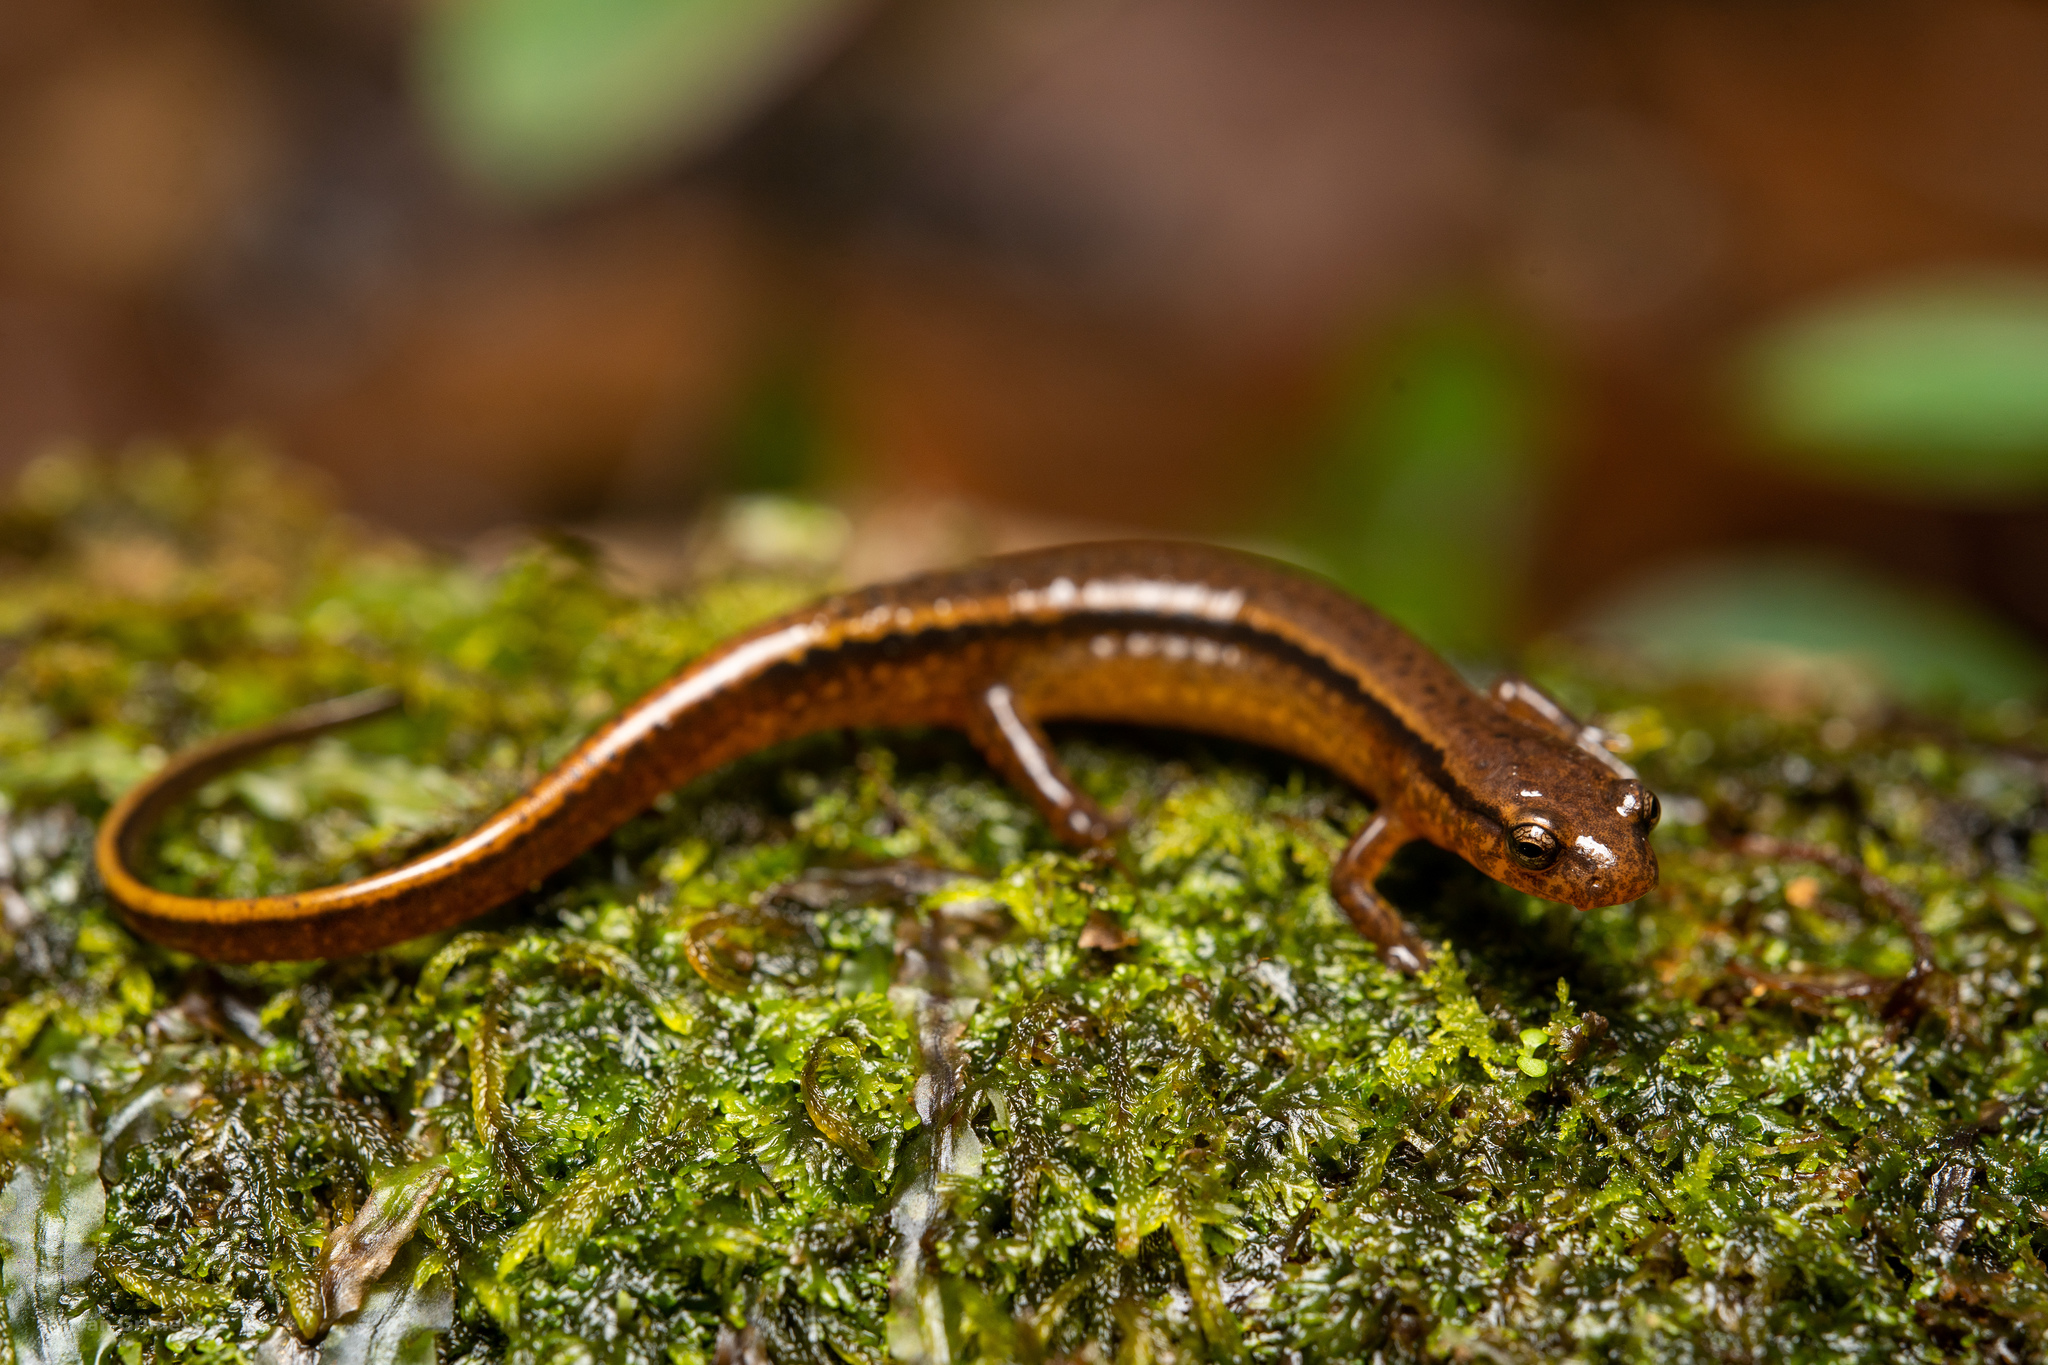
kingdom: Animalia
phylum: Chordata
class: Amphibia
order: Caudata
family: Plethodontidae
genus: Eurycea
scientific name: Eurycea cirrigera
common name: Southern two-lined salamander
